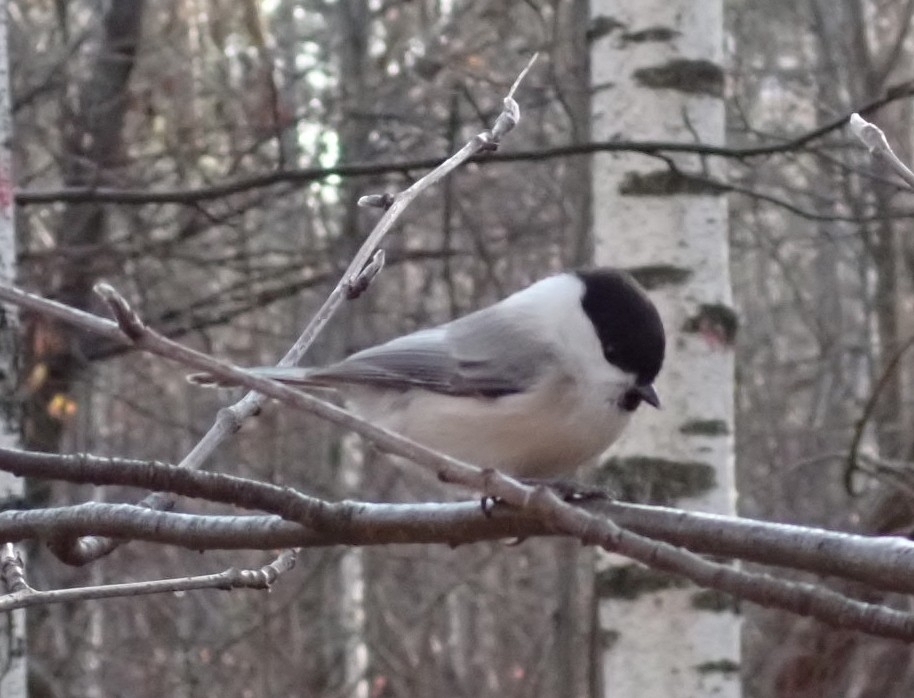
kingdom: Animalia
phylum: Chordata
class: Aves
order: Passeriformes
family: Paridae
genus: Poecile
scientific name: Poecile montanus
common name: Willow tit
